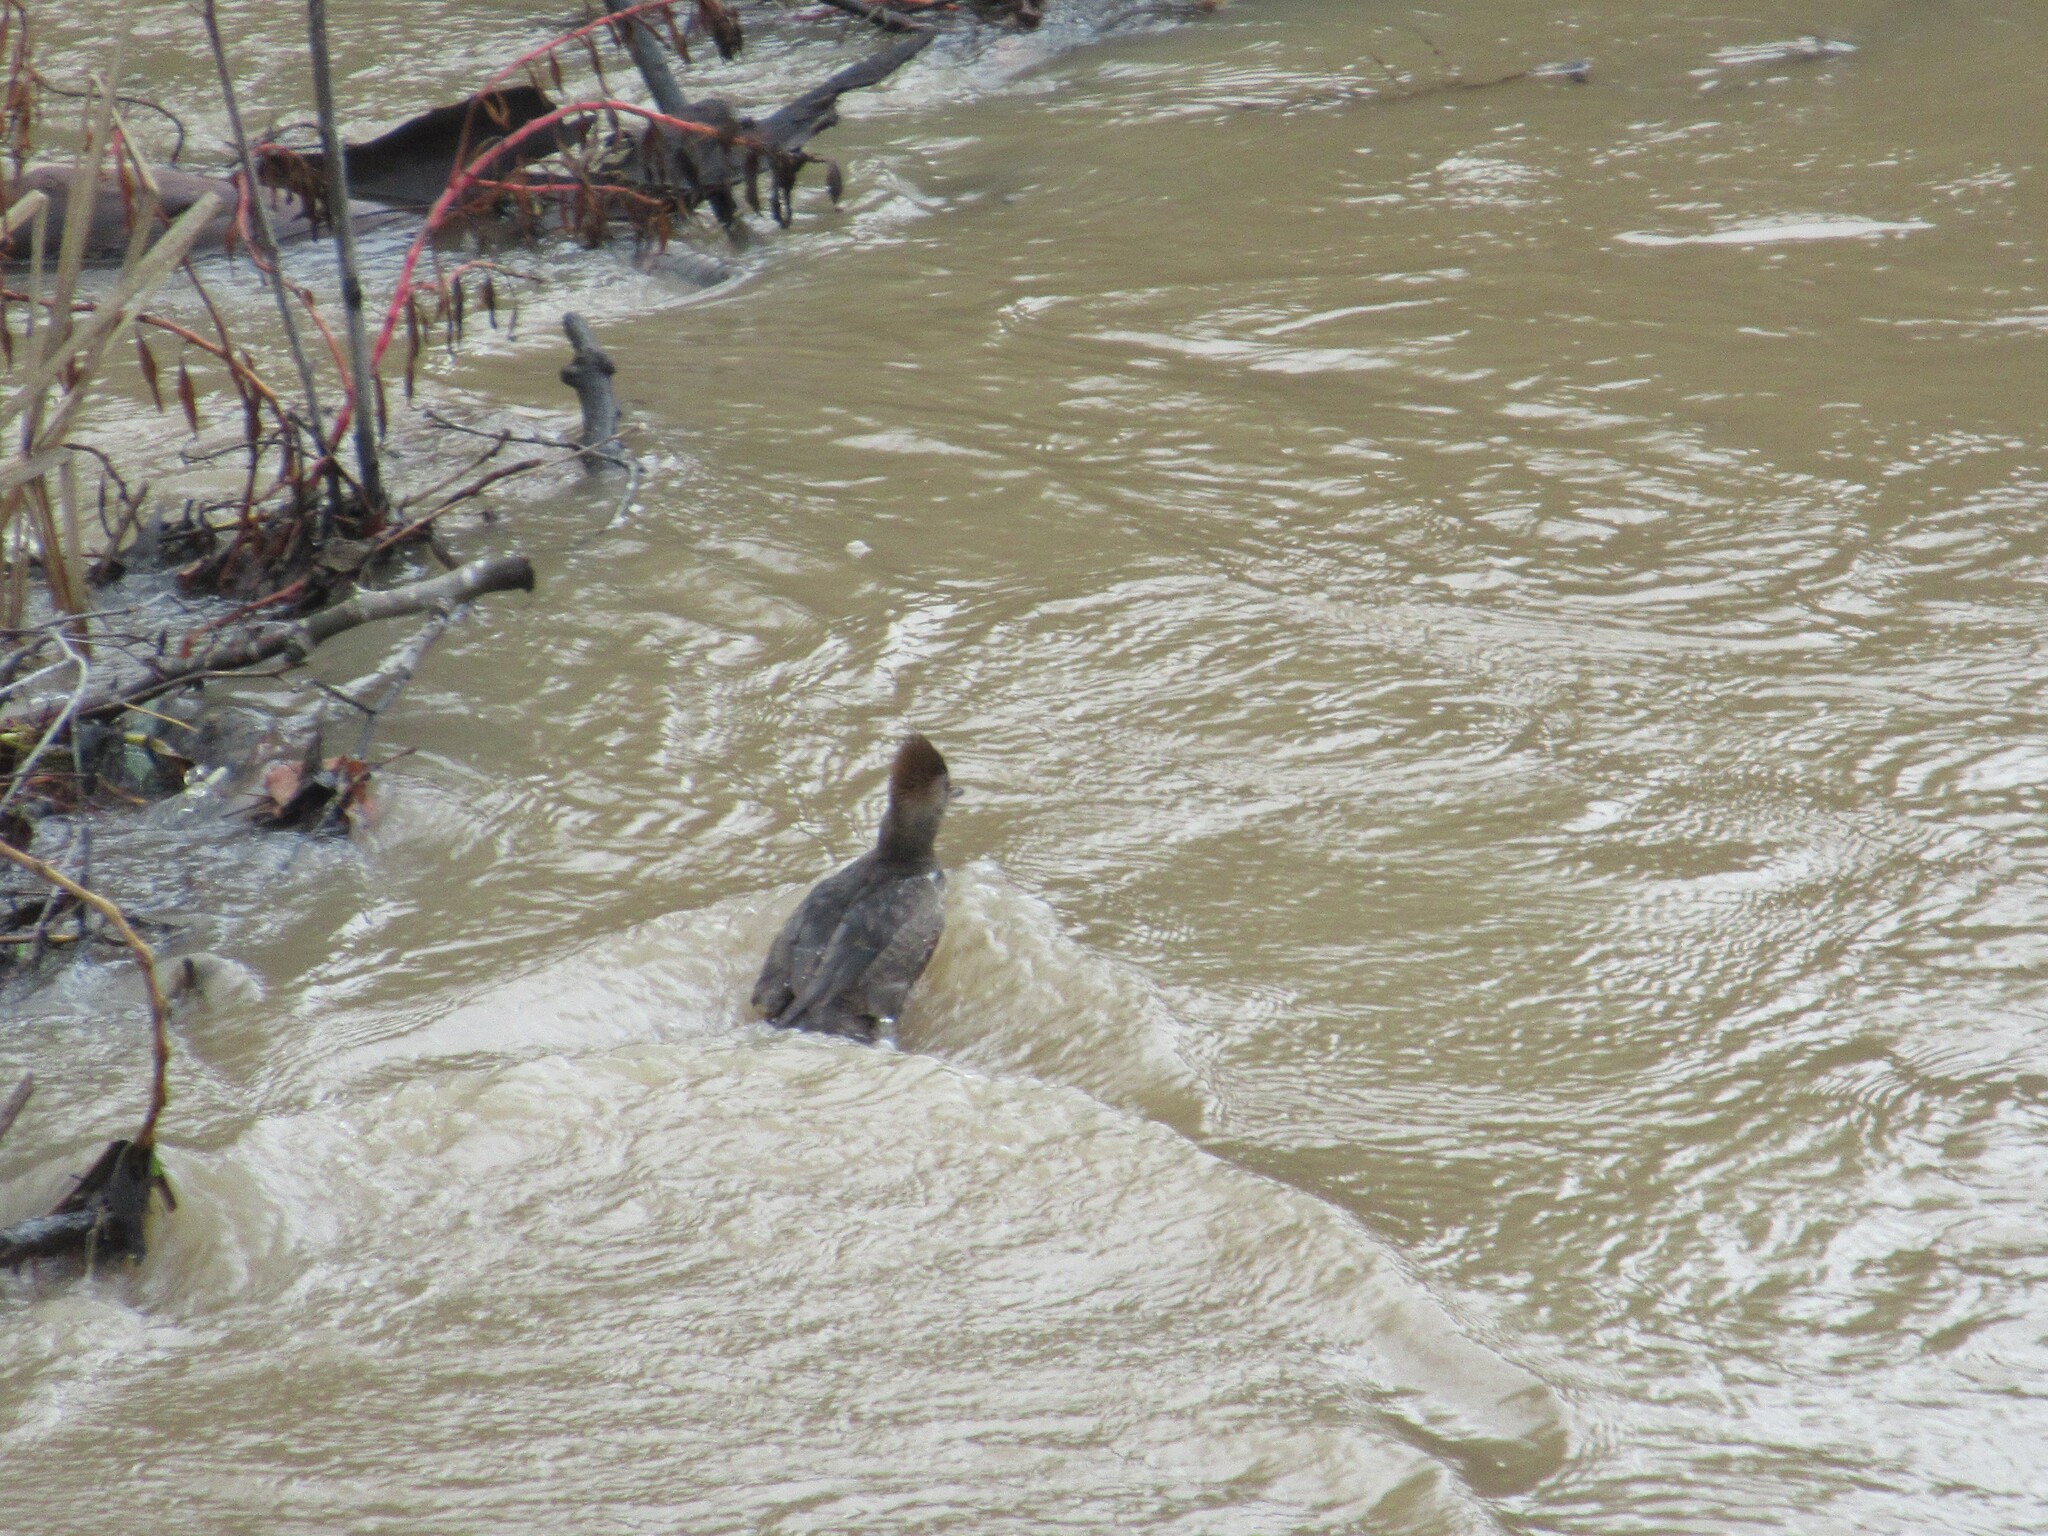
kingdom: Animalia
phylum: Chordata
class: Aves
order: Anseriformes
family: Anatidae
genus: Lophodytes
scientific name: Lophodytes cucullatus
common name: Hooded merganser
